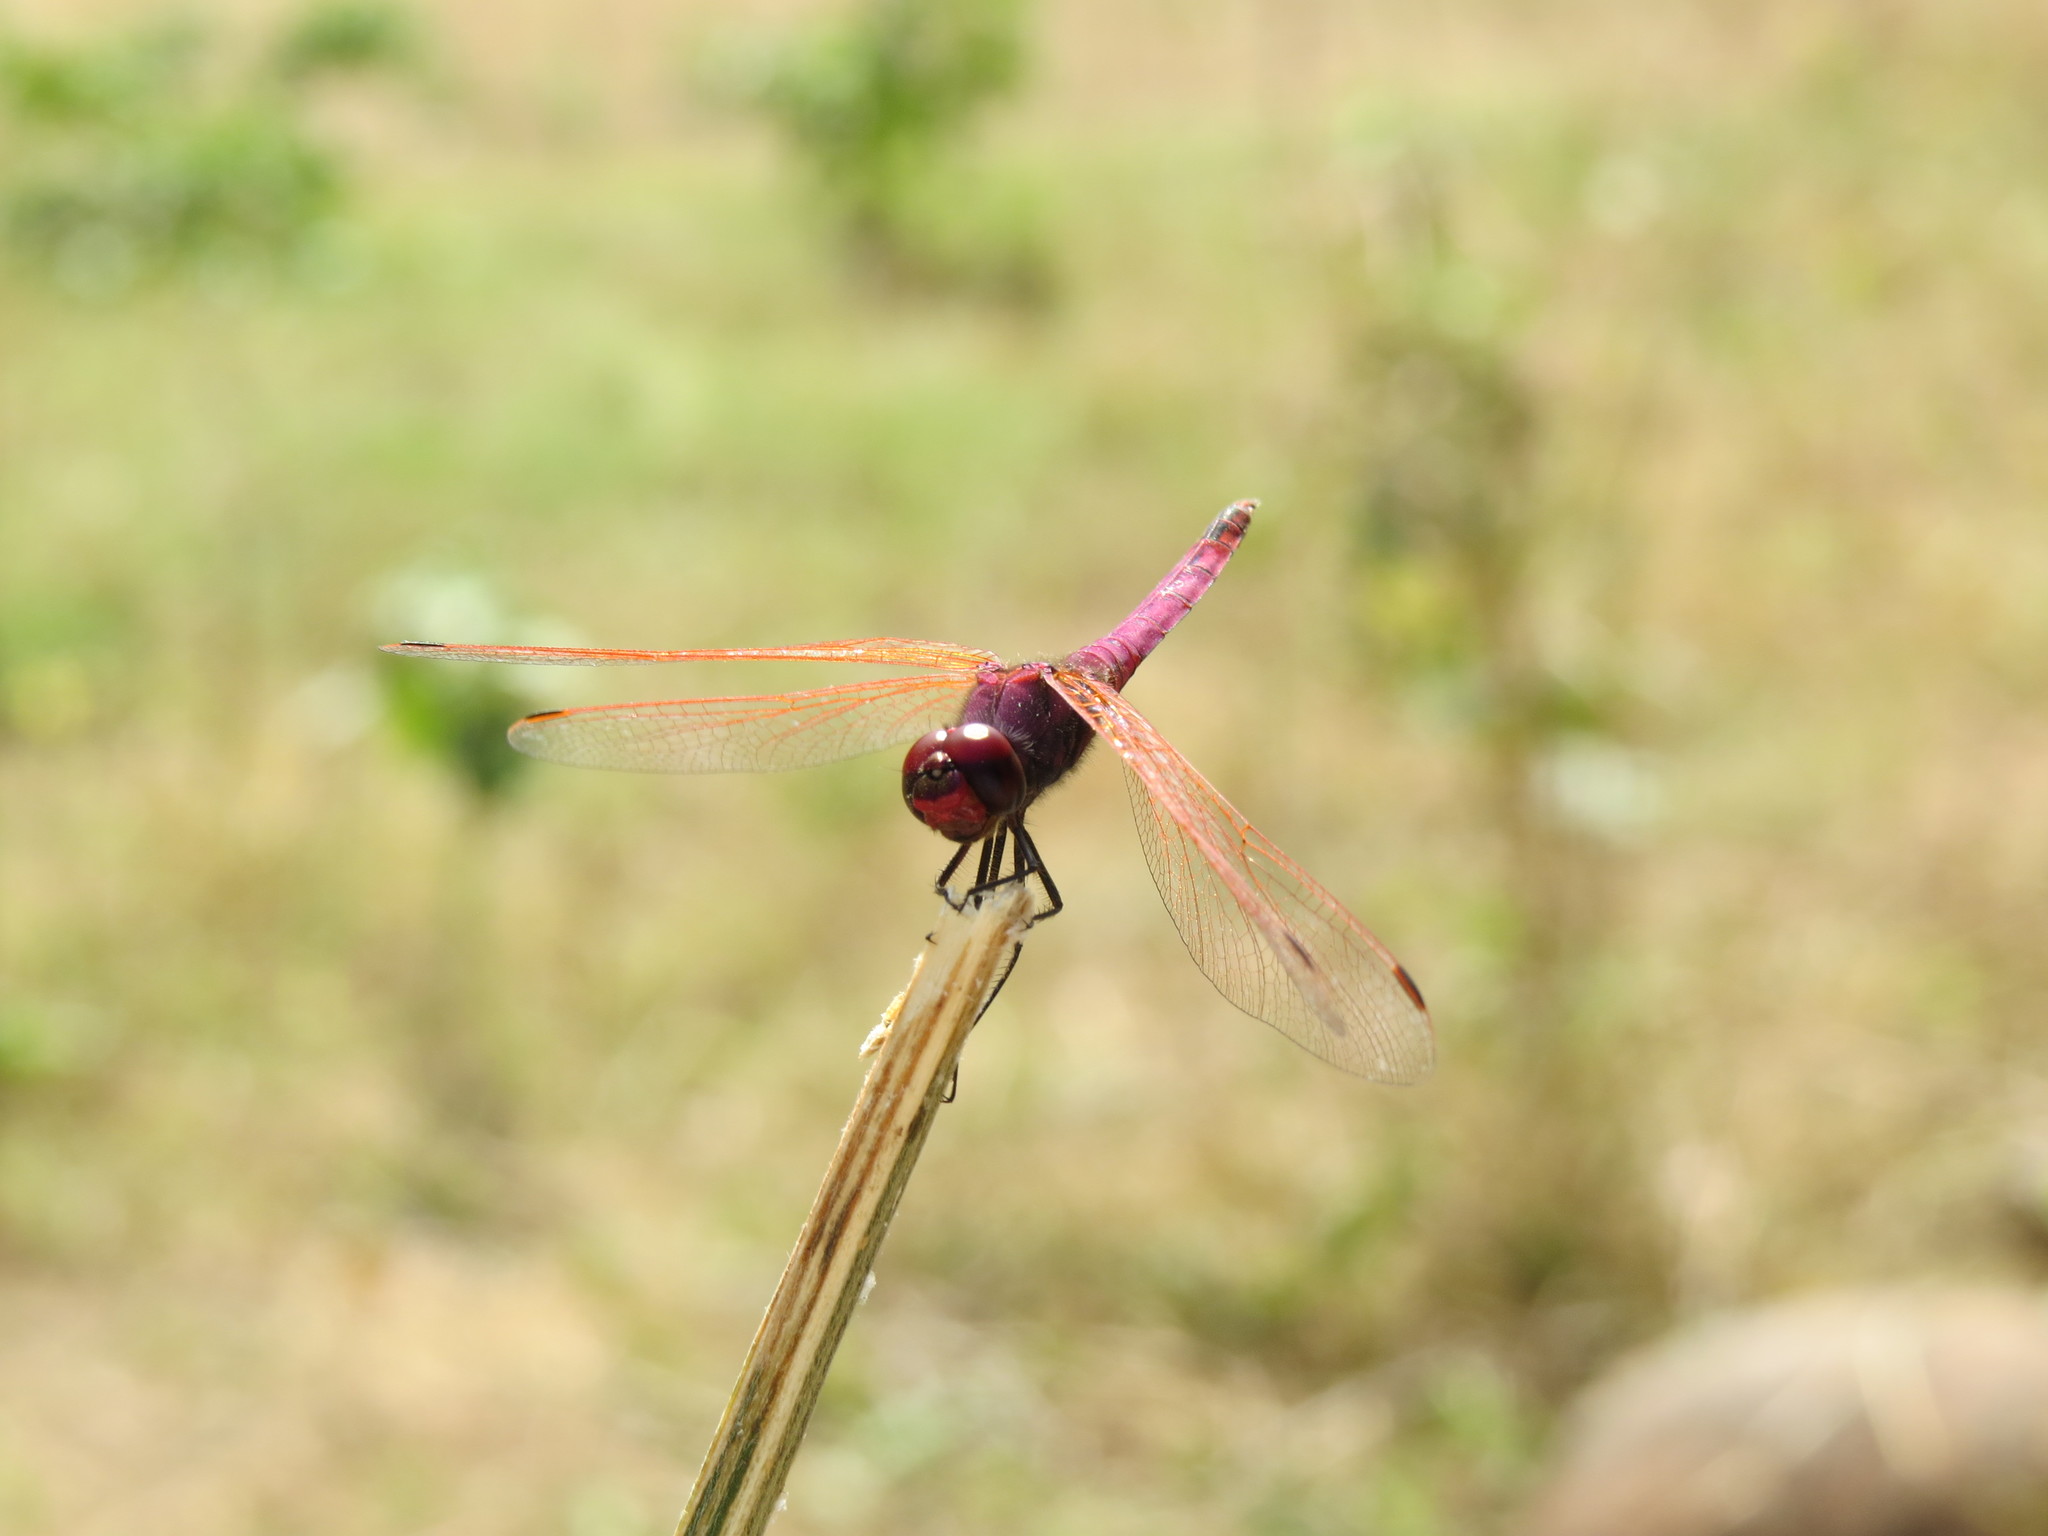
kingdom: Animalia
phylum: Arthropoda
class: Insecta
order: Odonata
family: Libellulidae
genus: Trithemis
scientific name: Trithemis annulata
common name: Violet dropwing
